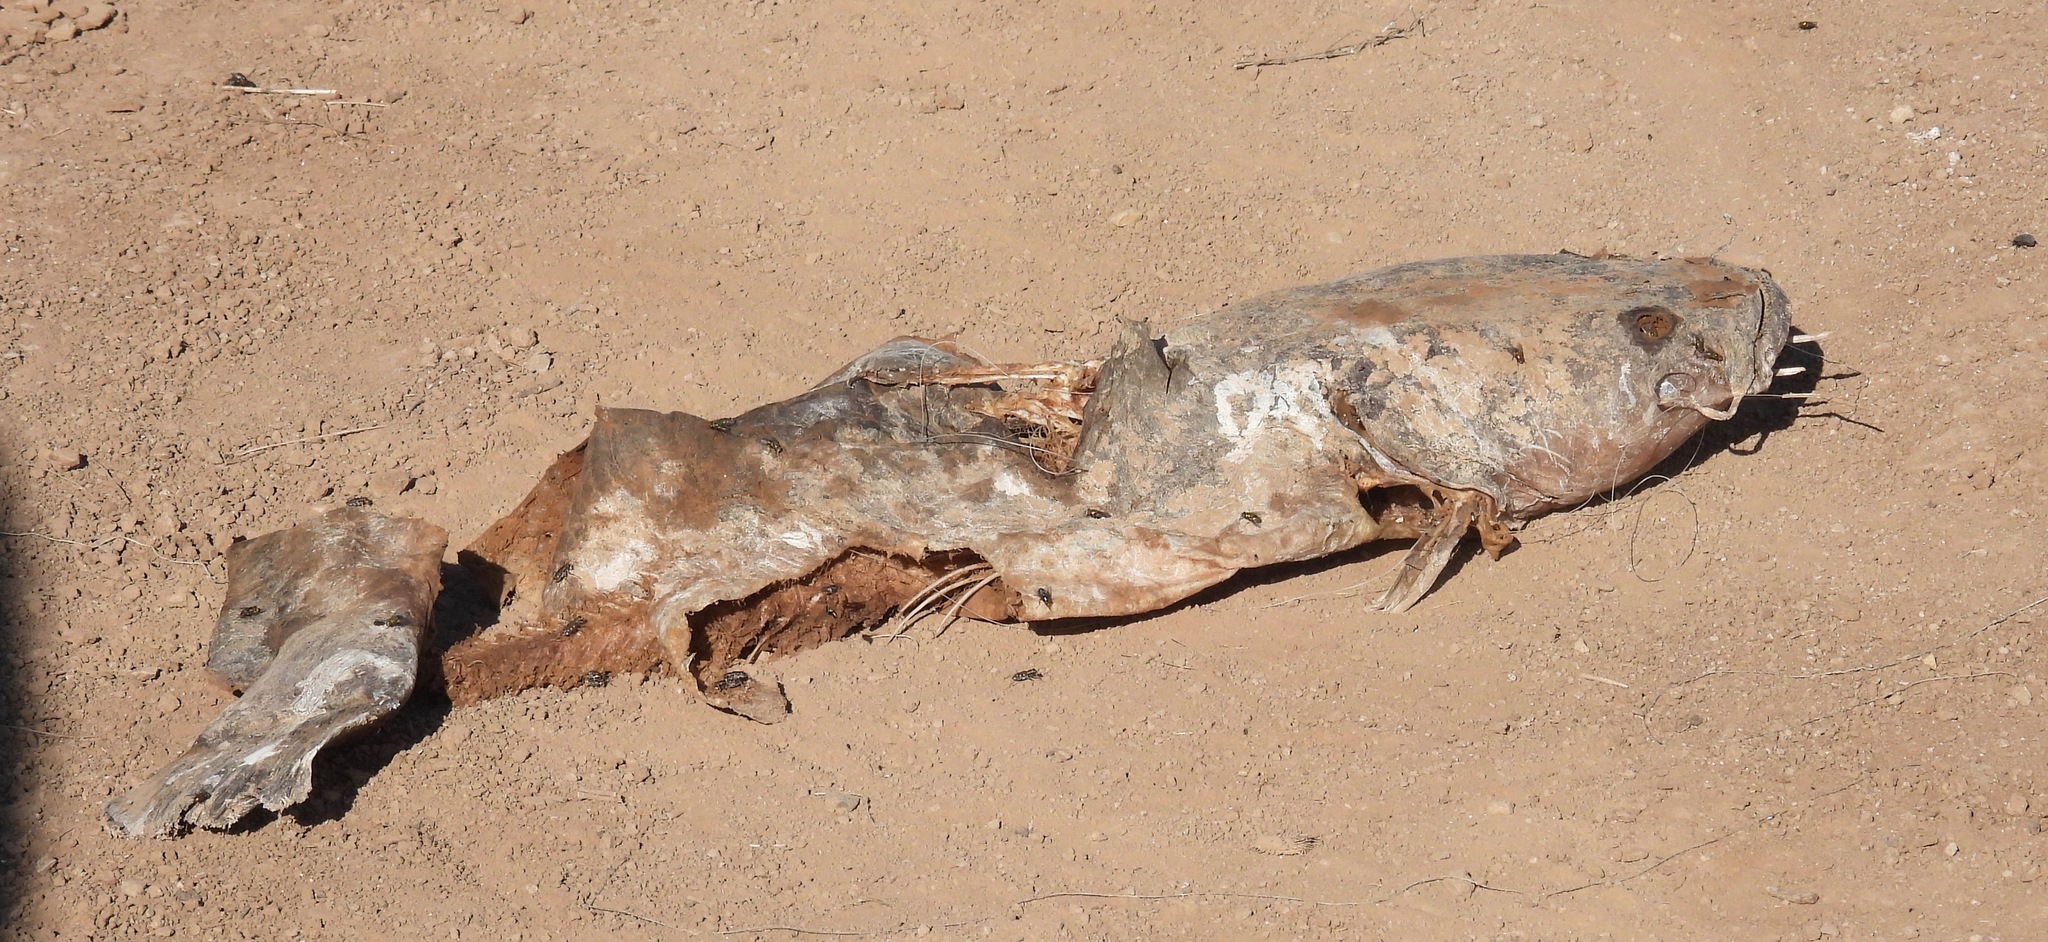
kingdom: Animalia
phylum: Chordata
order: Siluriformes
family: Ictaluridae
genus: Pylodictis
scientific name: Pylodictis olivaris
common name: Flathead catfish
